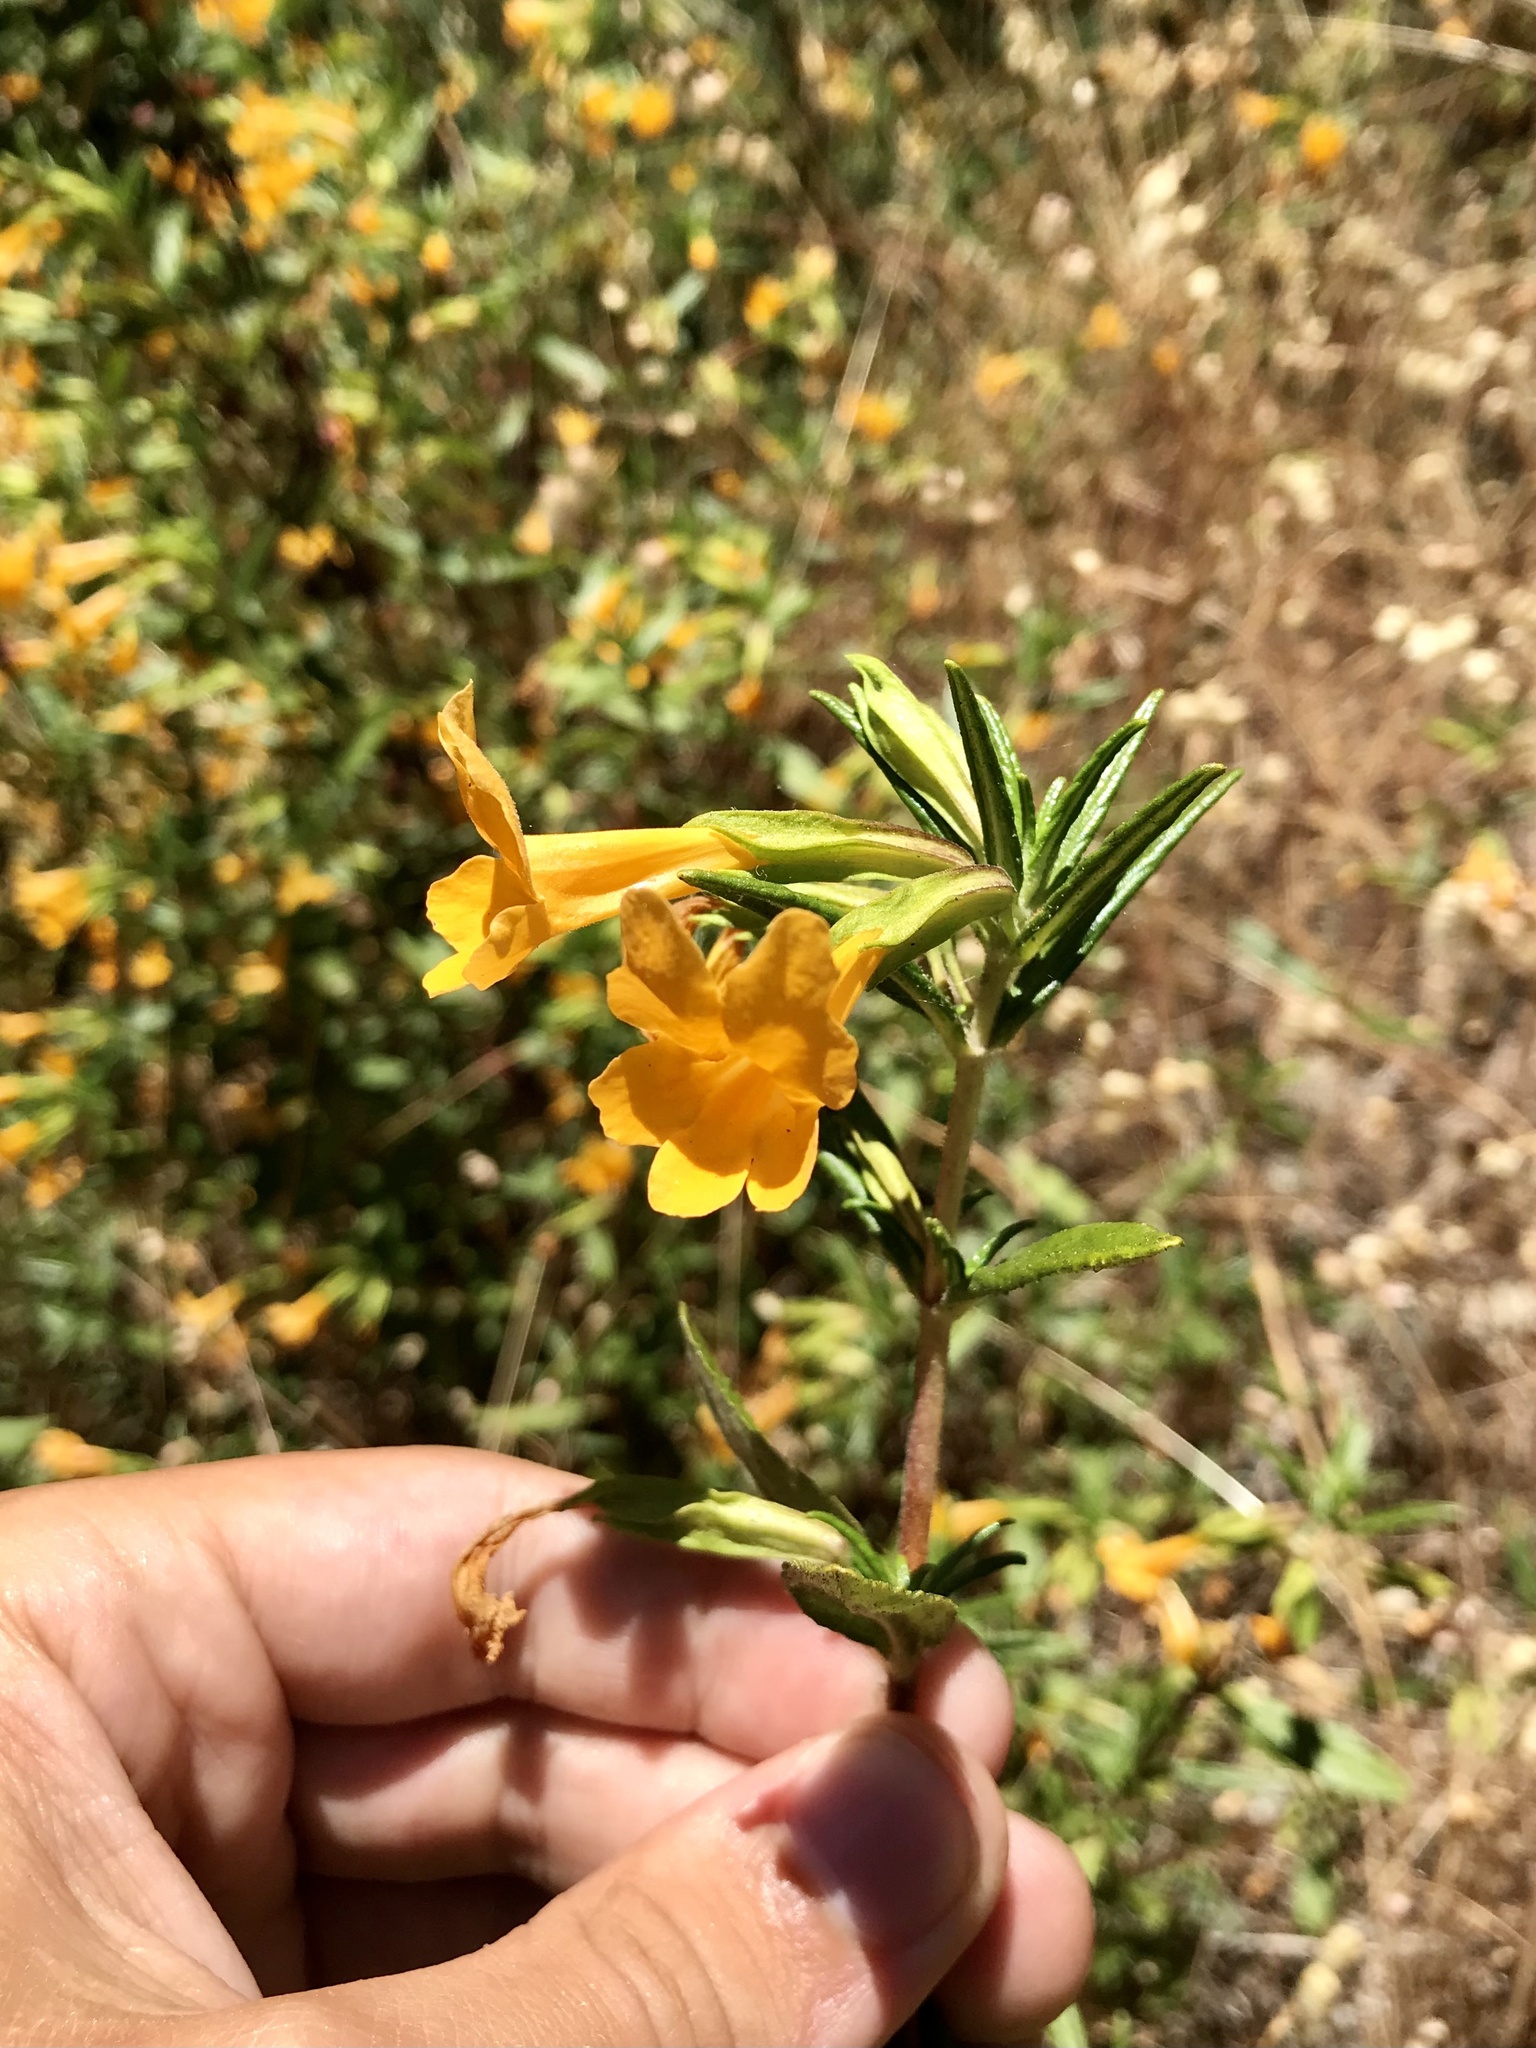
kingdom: Plantae
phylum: Tracheophyta
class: Magnoliopsida
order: Lamiales
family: Phrymaceae
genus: Diplacus
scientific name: Diplacus aurantiacus
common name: Bush monkey-flower
